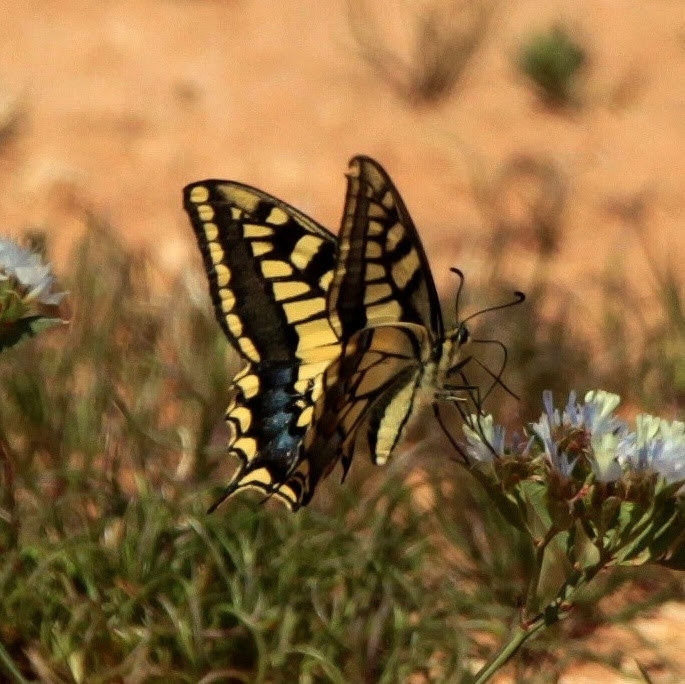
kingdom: Animalia
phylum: Arthropoda
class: Insecta
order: Lepidoptera
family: Papilionidae
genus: Papilio
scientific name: Papilio machaon
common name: Swallowtail
